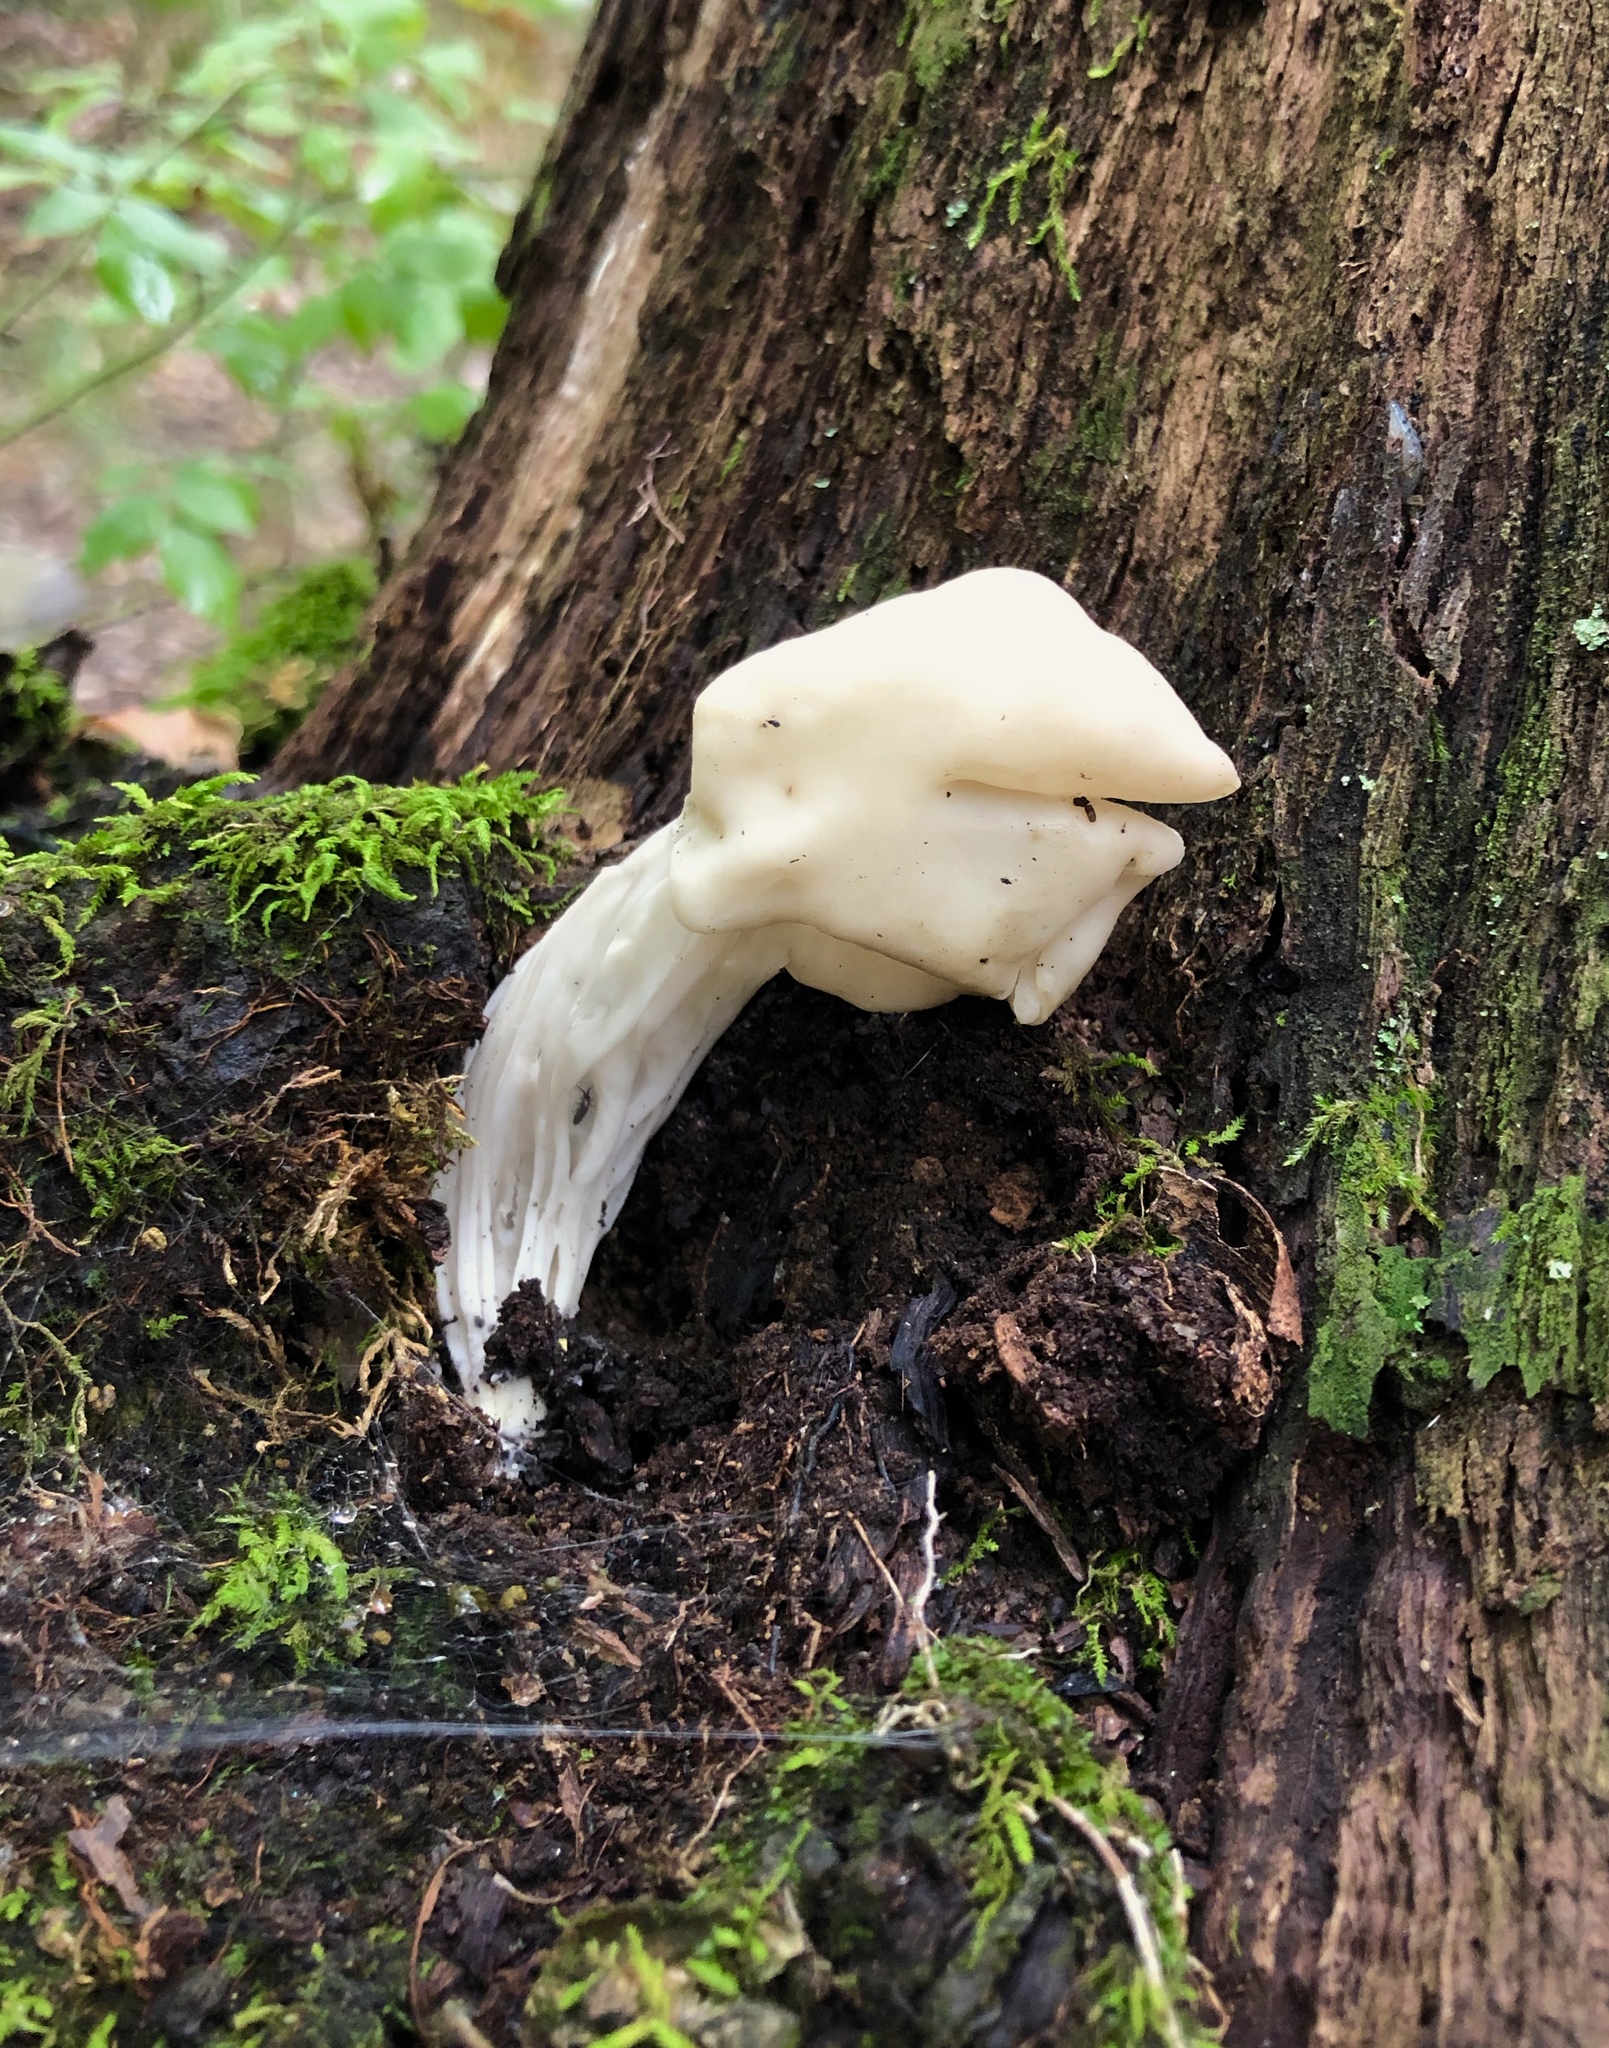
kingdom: Fungi
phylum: Ascomycota
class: Pezizomycetes
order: Pezizales
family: Helvellaceae
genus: Helvella
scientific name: Helvella crispa
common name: White saddle
